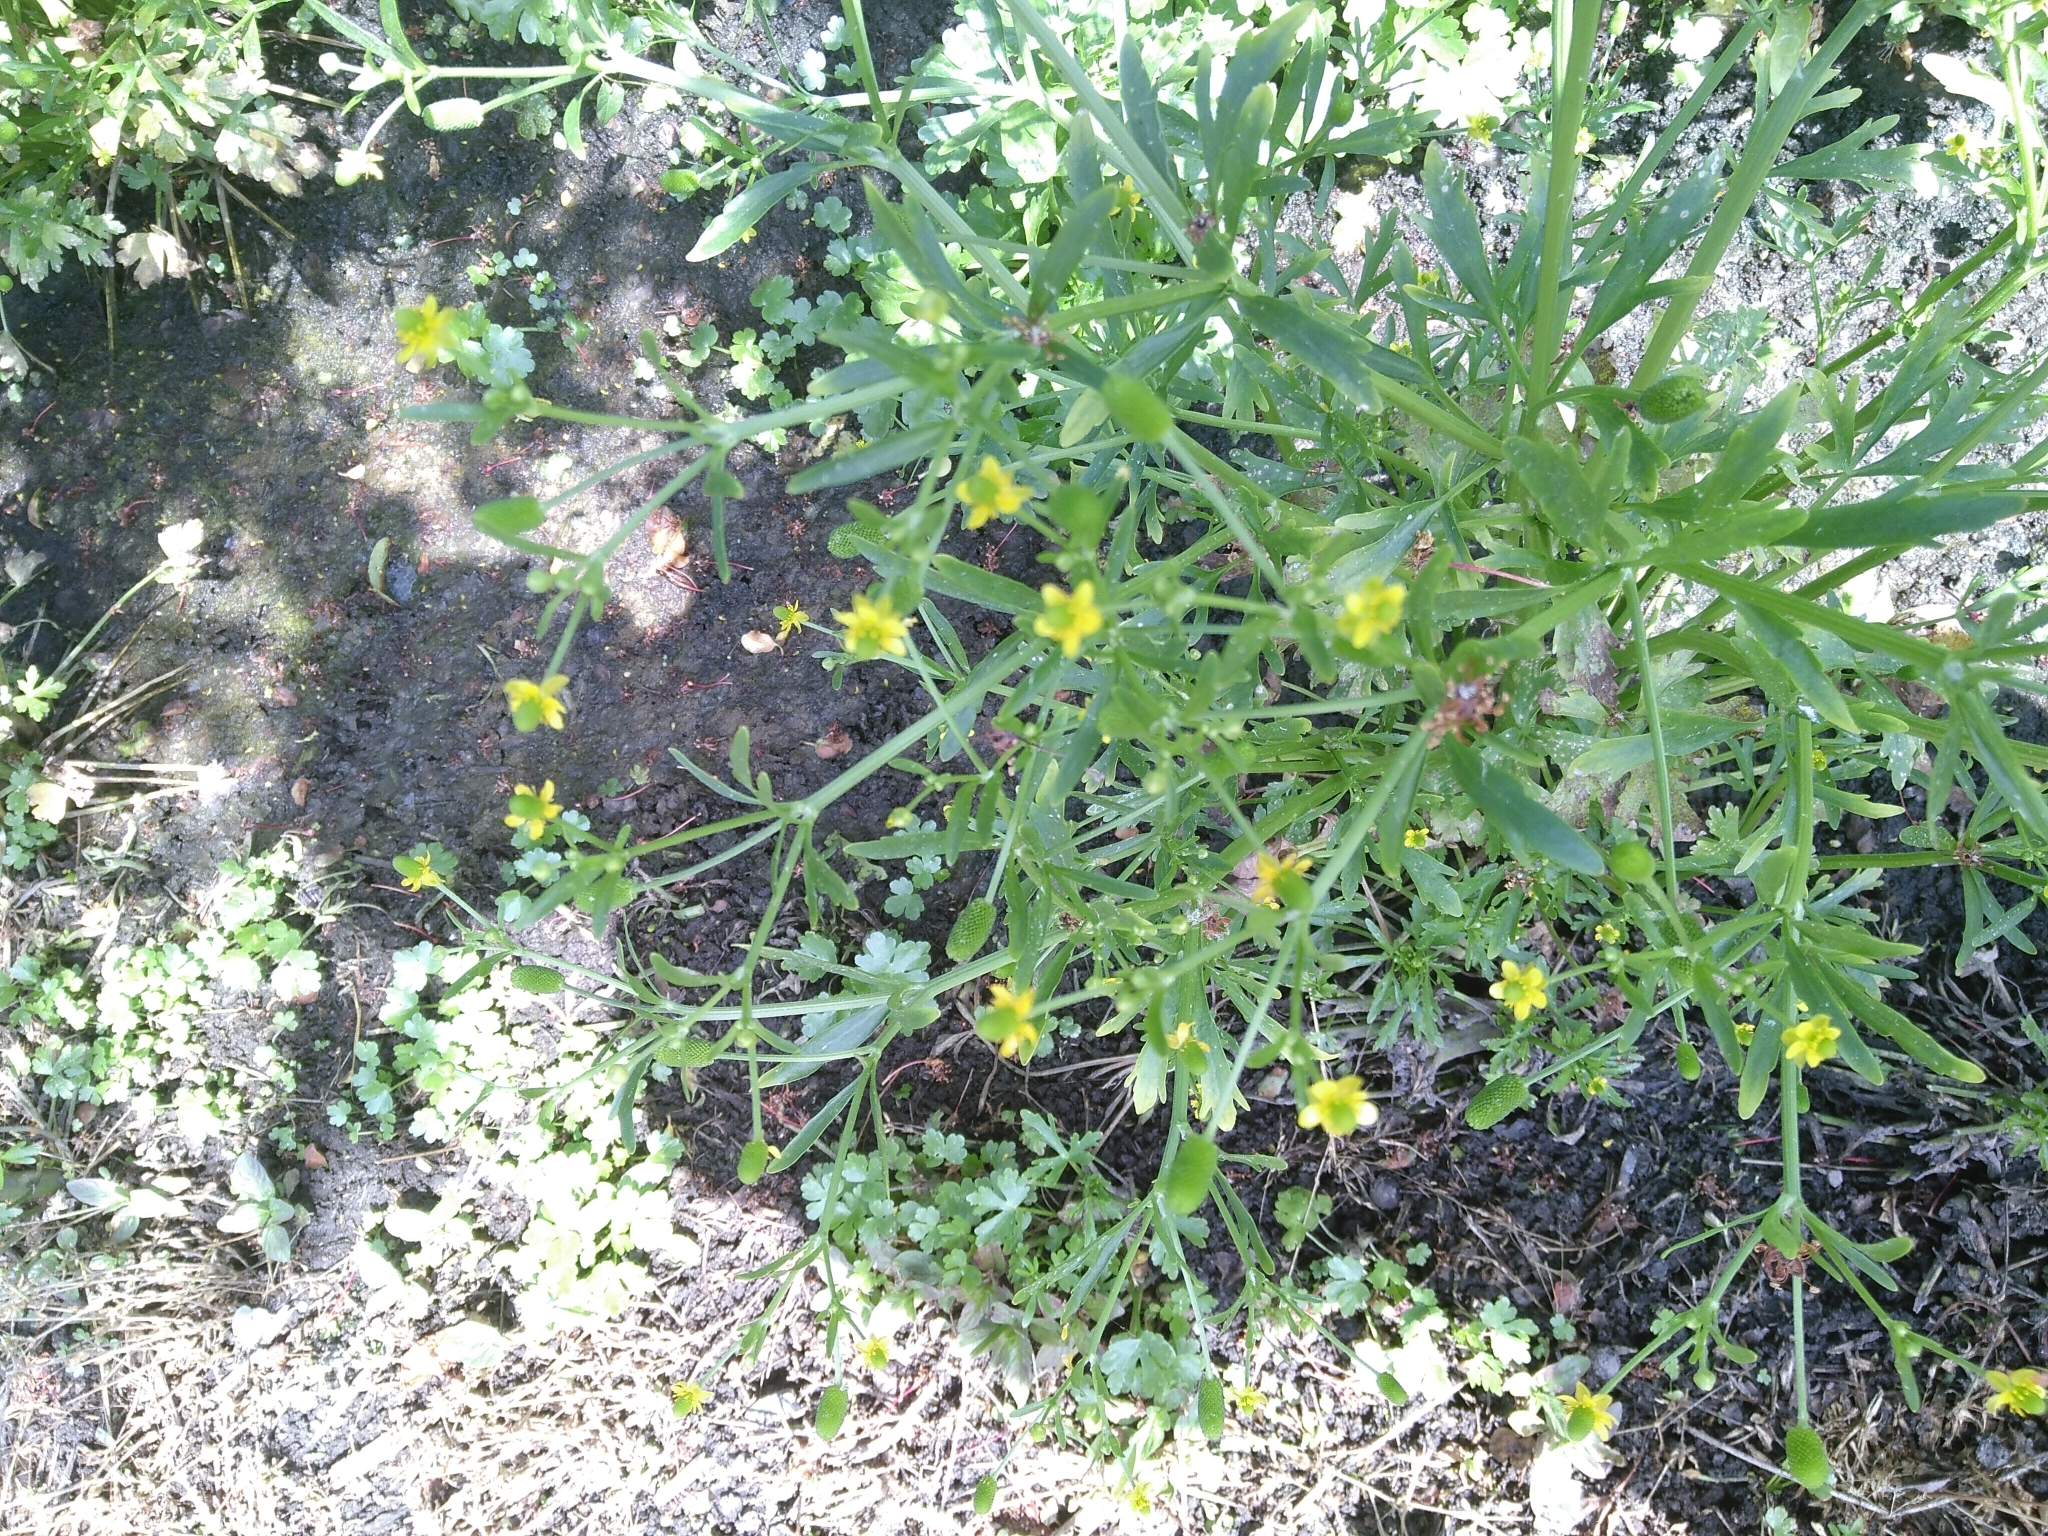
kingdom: Plantae
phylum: Tracheophyta
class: Magnoliopsida
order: Ranunculales
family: Ranunculaceae
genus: Ranunculus
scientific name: Ranunculus sceleratus
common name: Celery-leaved buttercup
